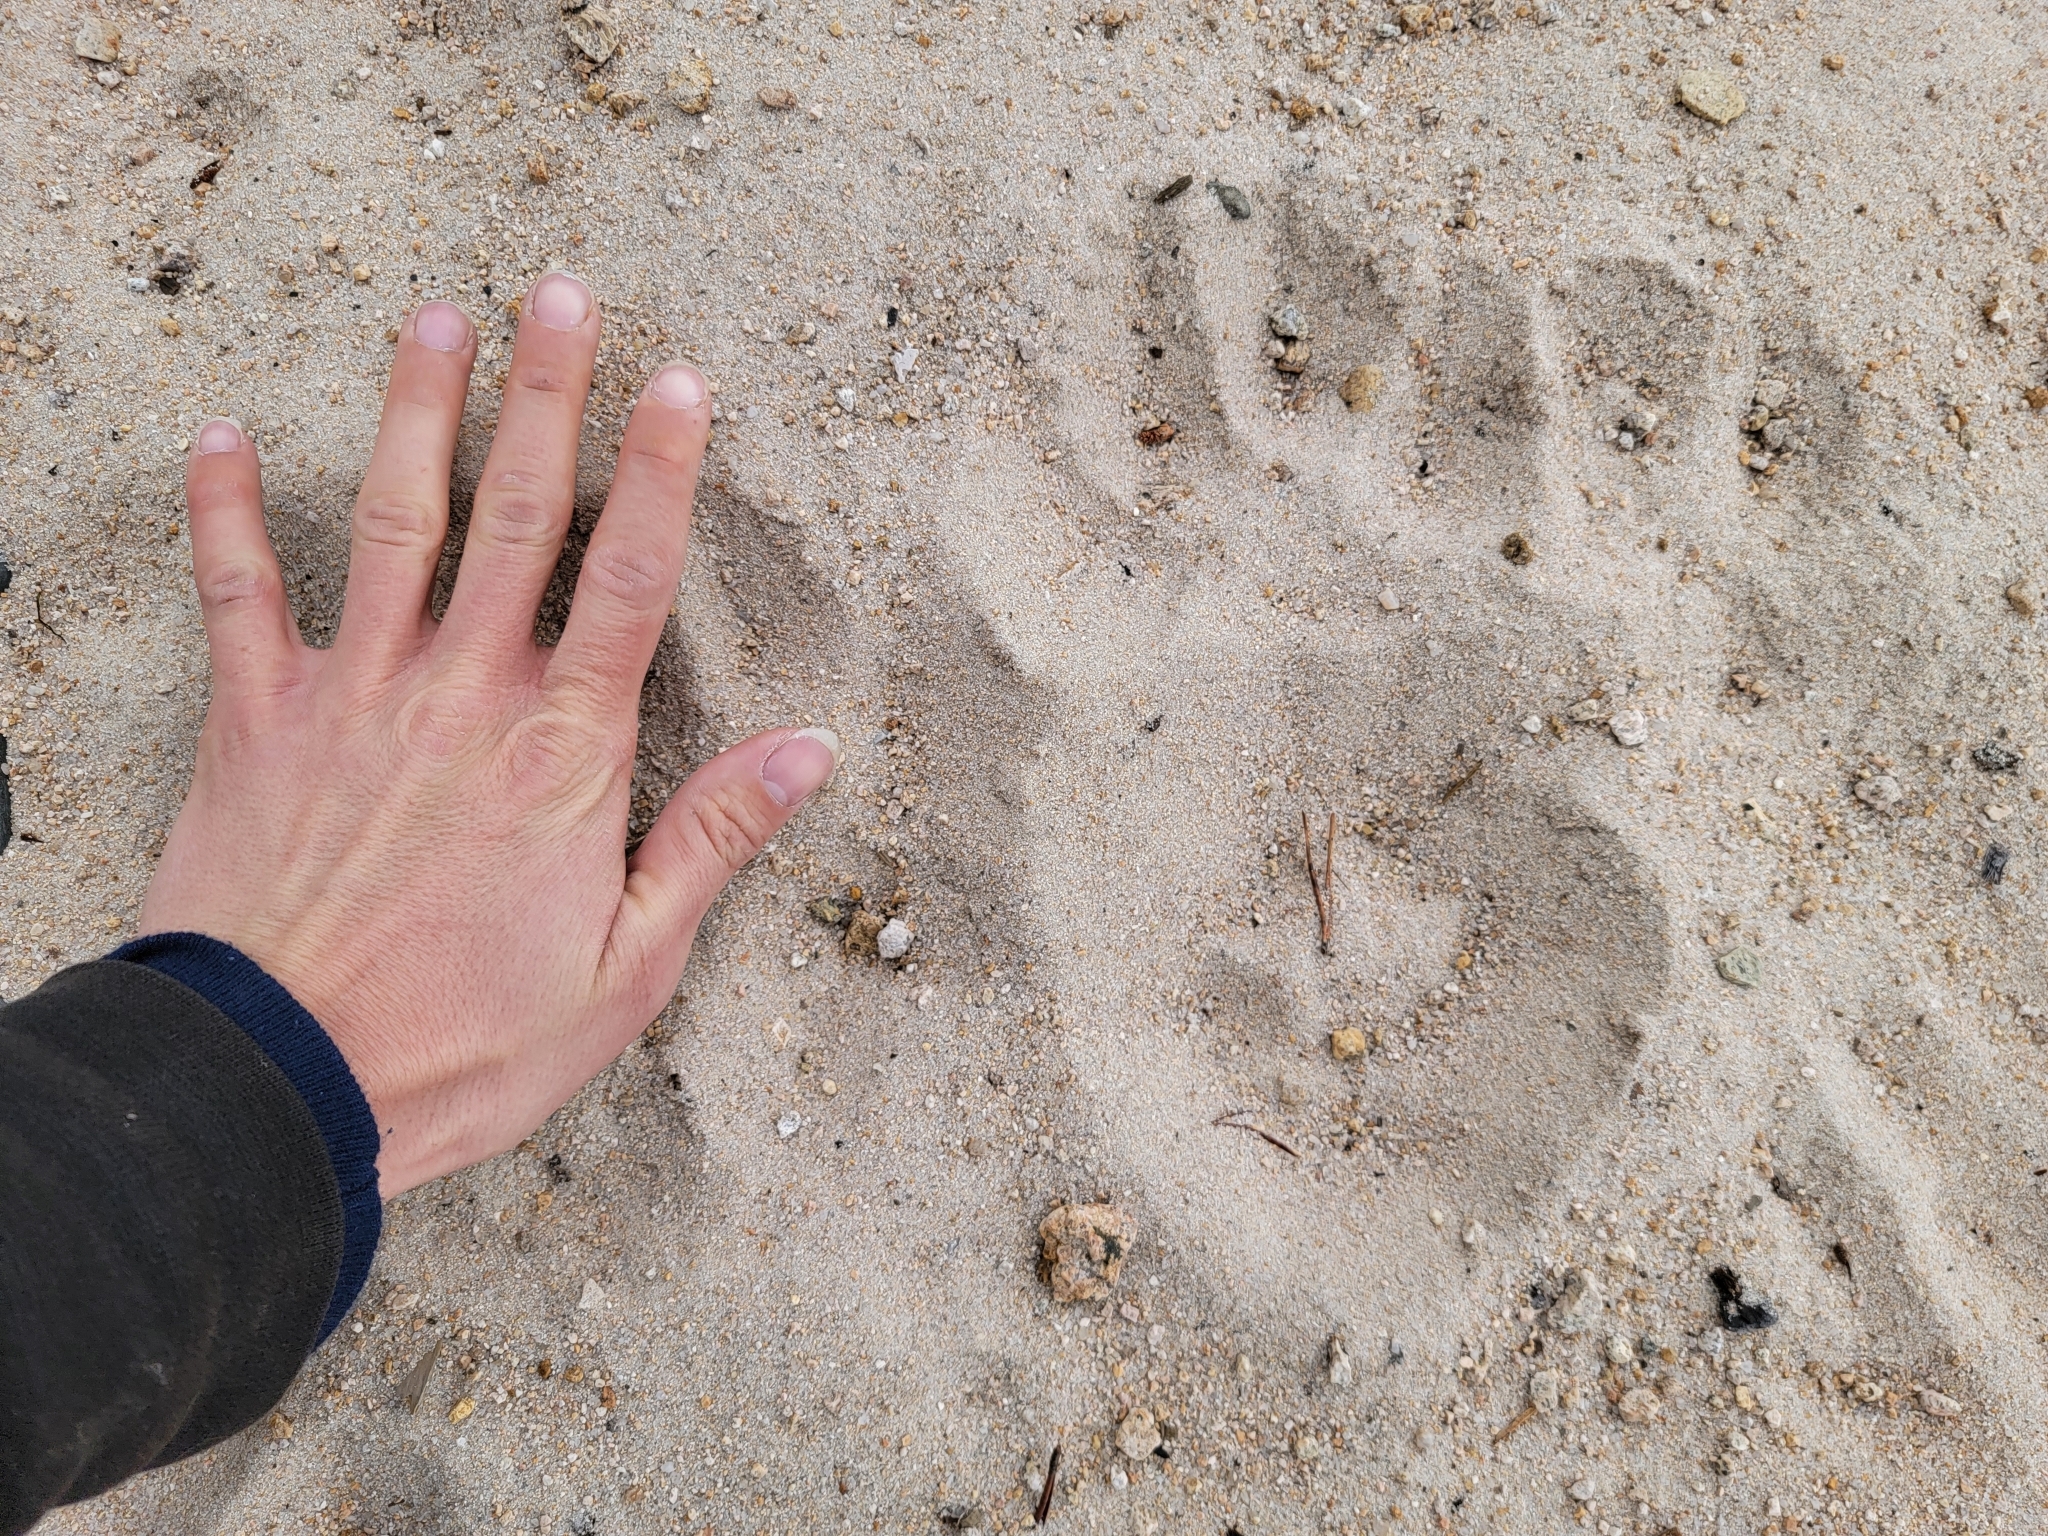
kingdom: Animalia
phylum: Chordata
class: Mammalia
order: Carnivora
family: Ursidae
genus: Ursus
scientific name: Ursus americanus
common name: American black bear
